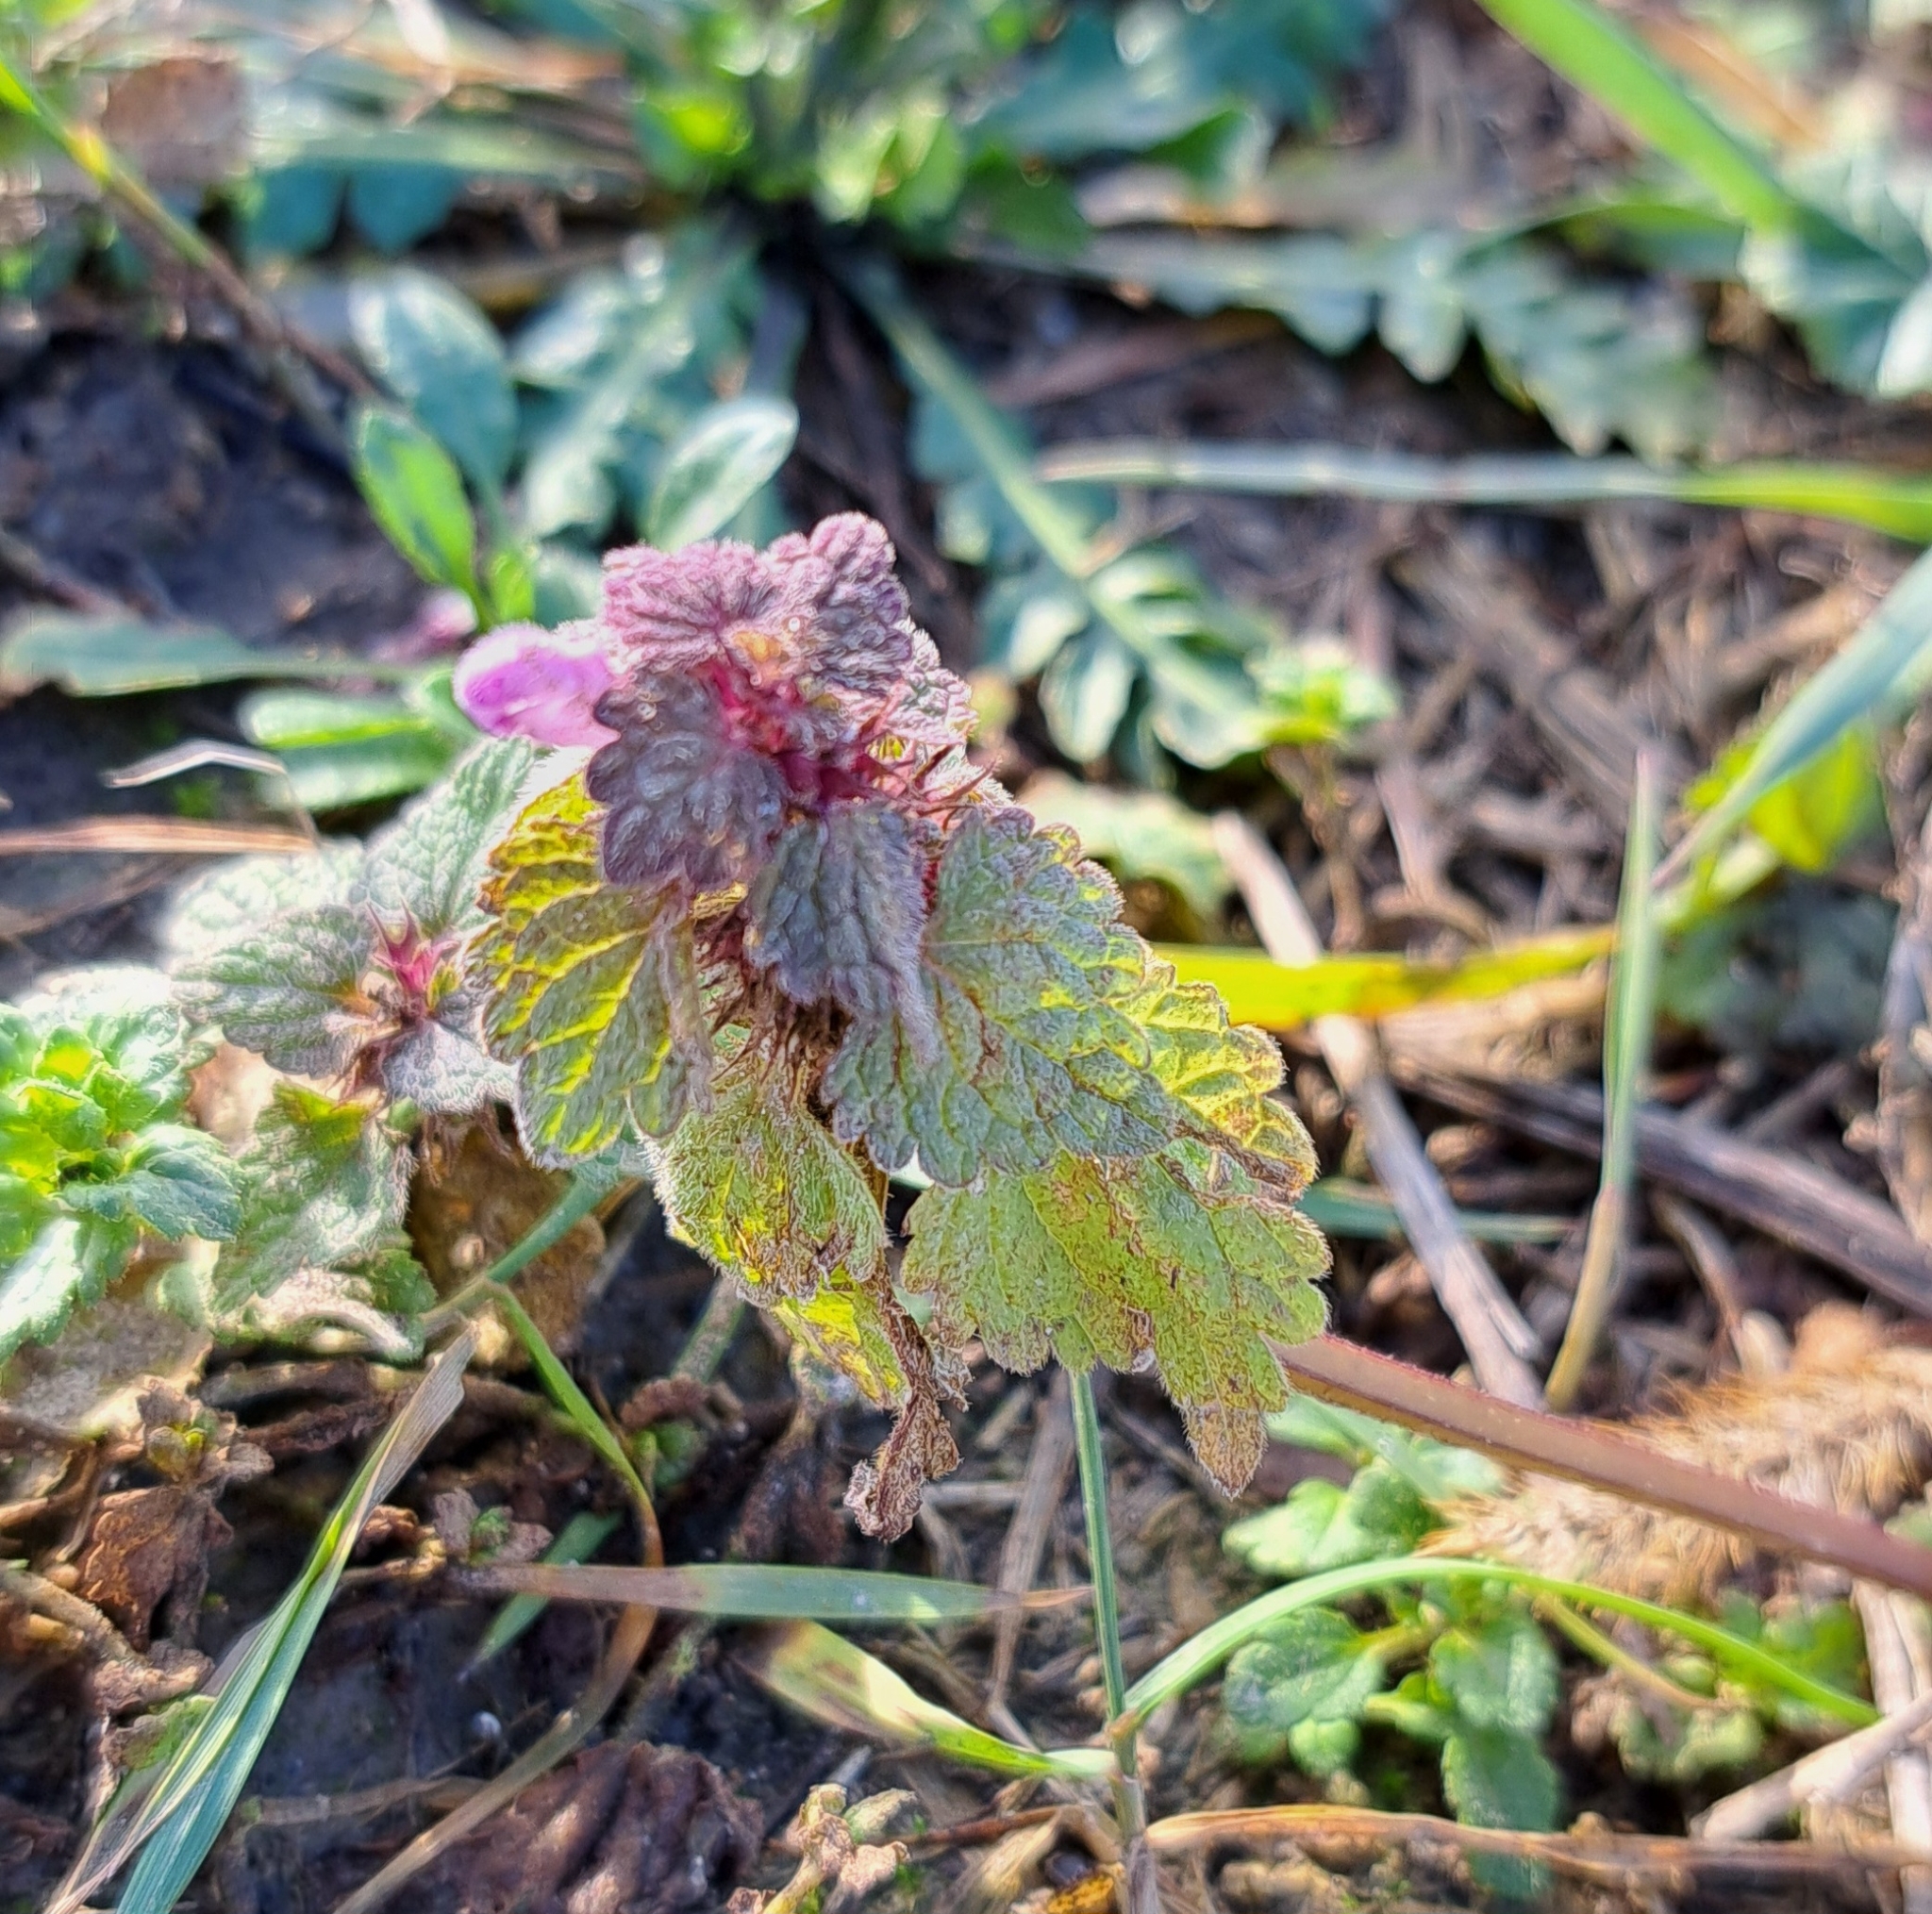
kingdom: Plantae
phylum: Tracheophyta
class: Magnoliopsida
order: Lamiales
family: Lamiaceae
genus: Lamium
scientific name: Lamium purpureum
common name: Red dead-nettle
